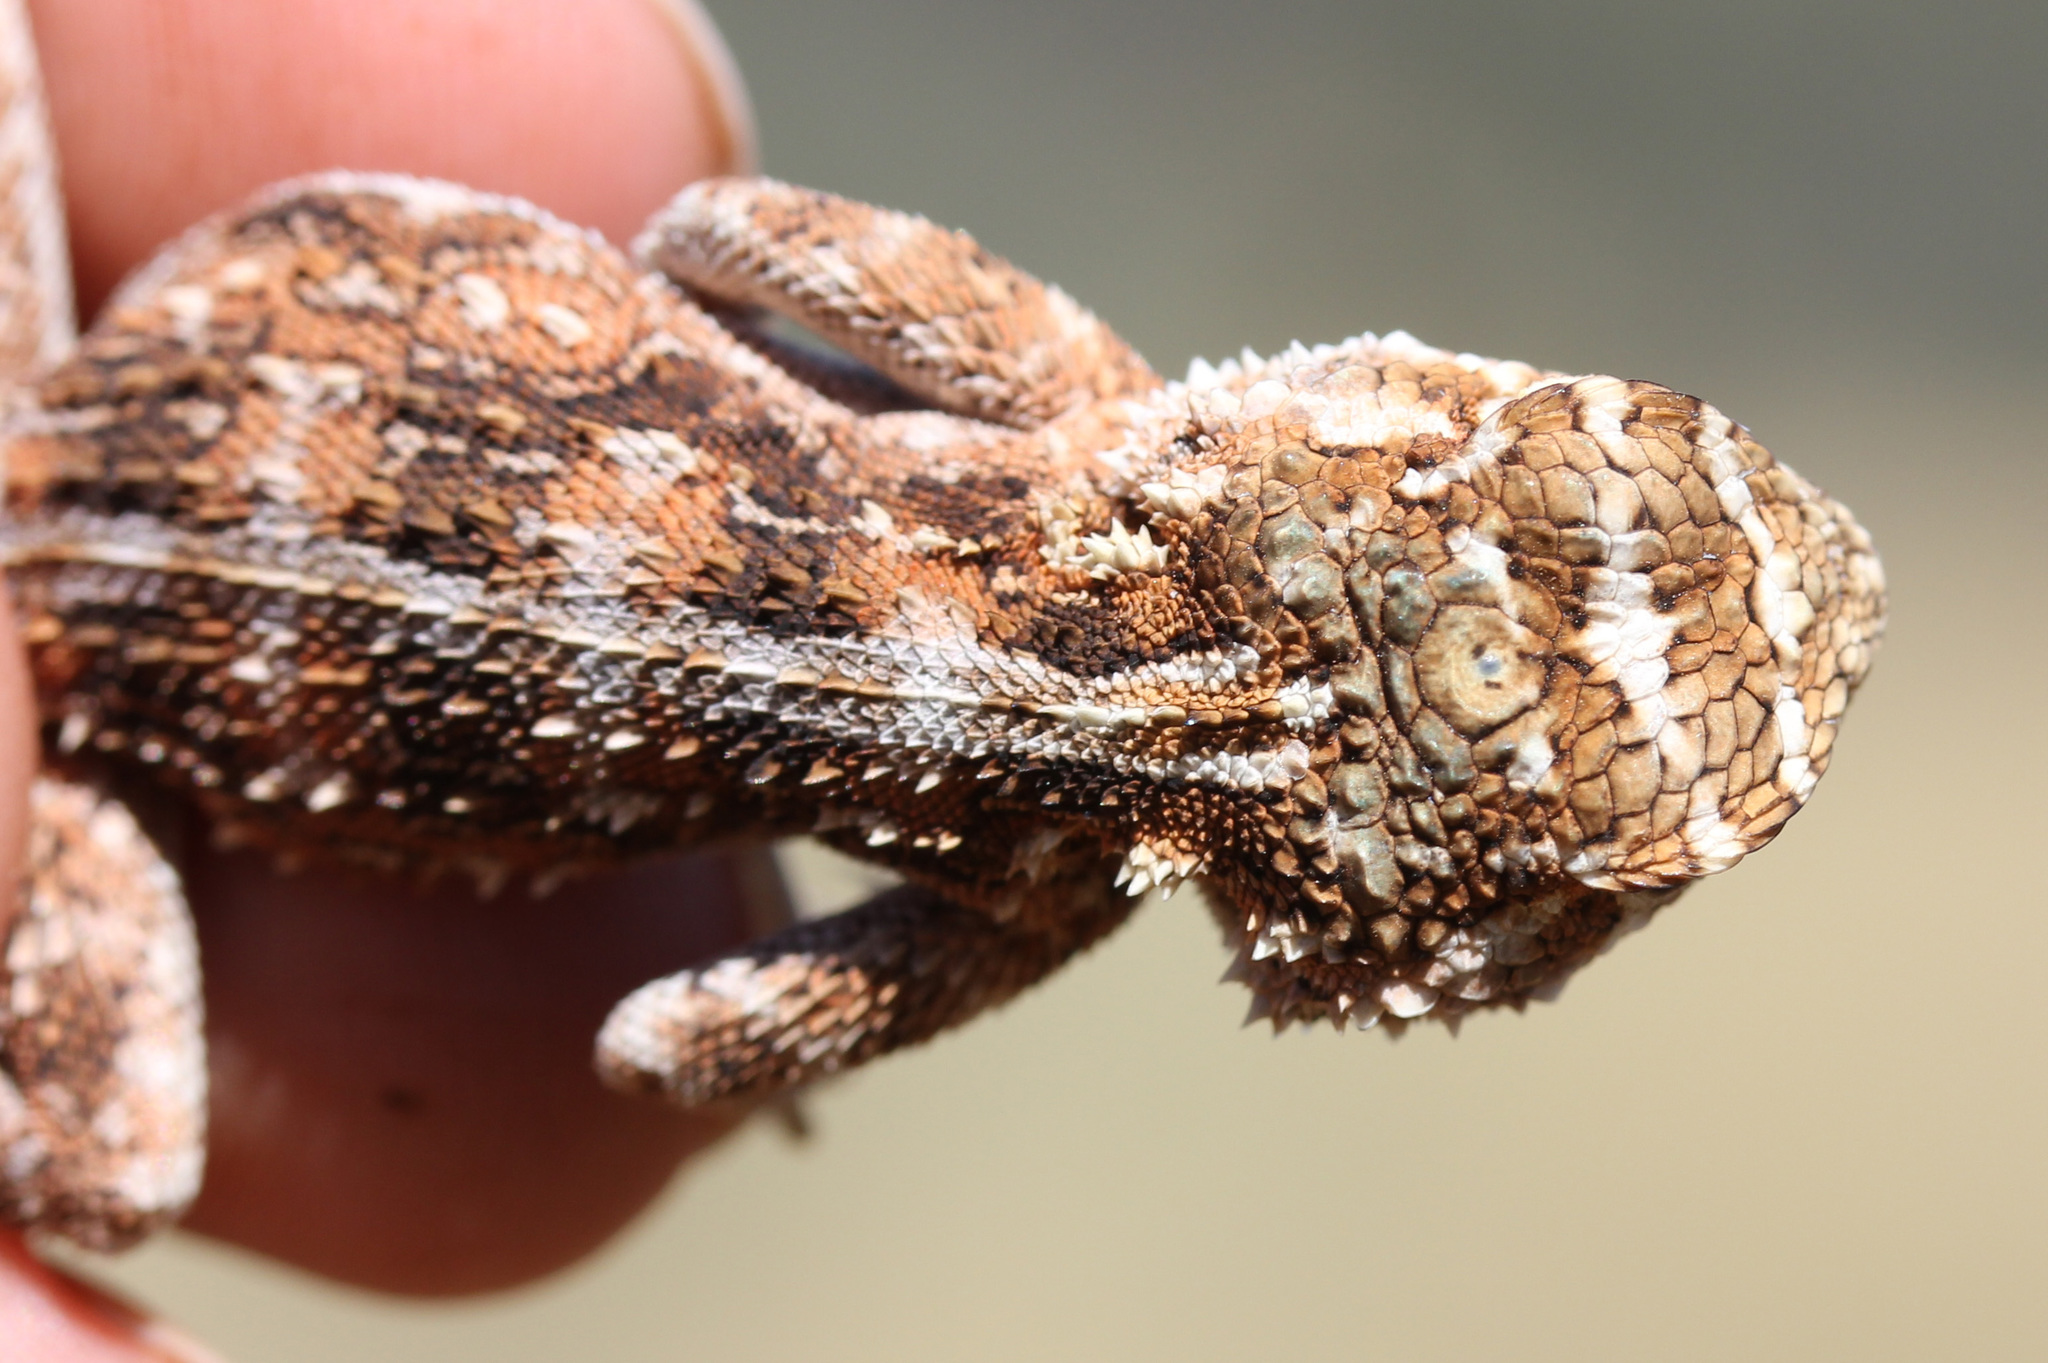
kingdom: Animalia
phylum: Chordata
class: Squamata
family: Agamidae
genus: Agama
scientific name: Agama aculeata
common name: Common ground agama
